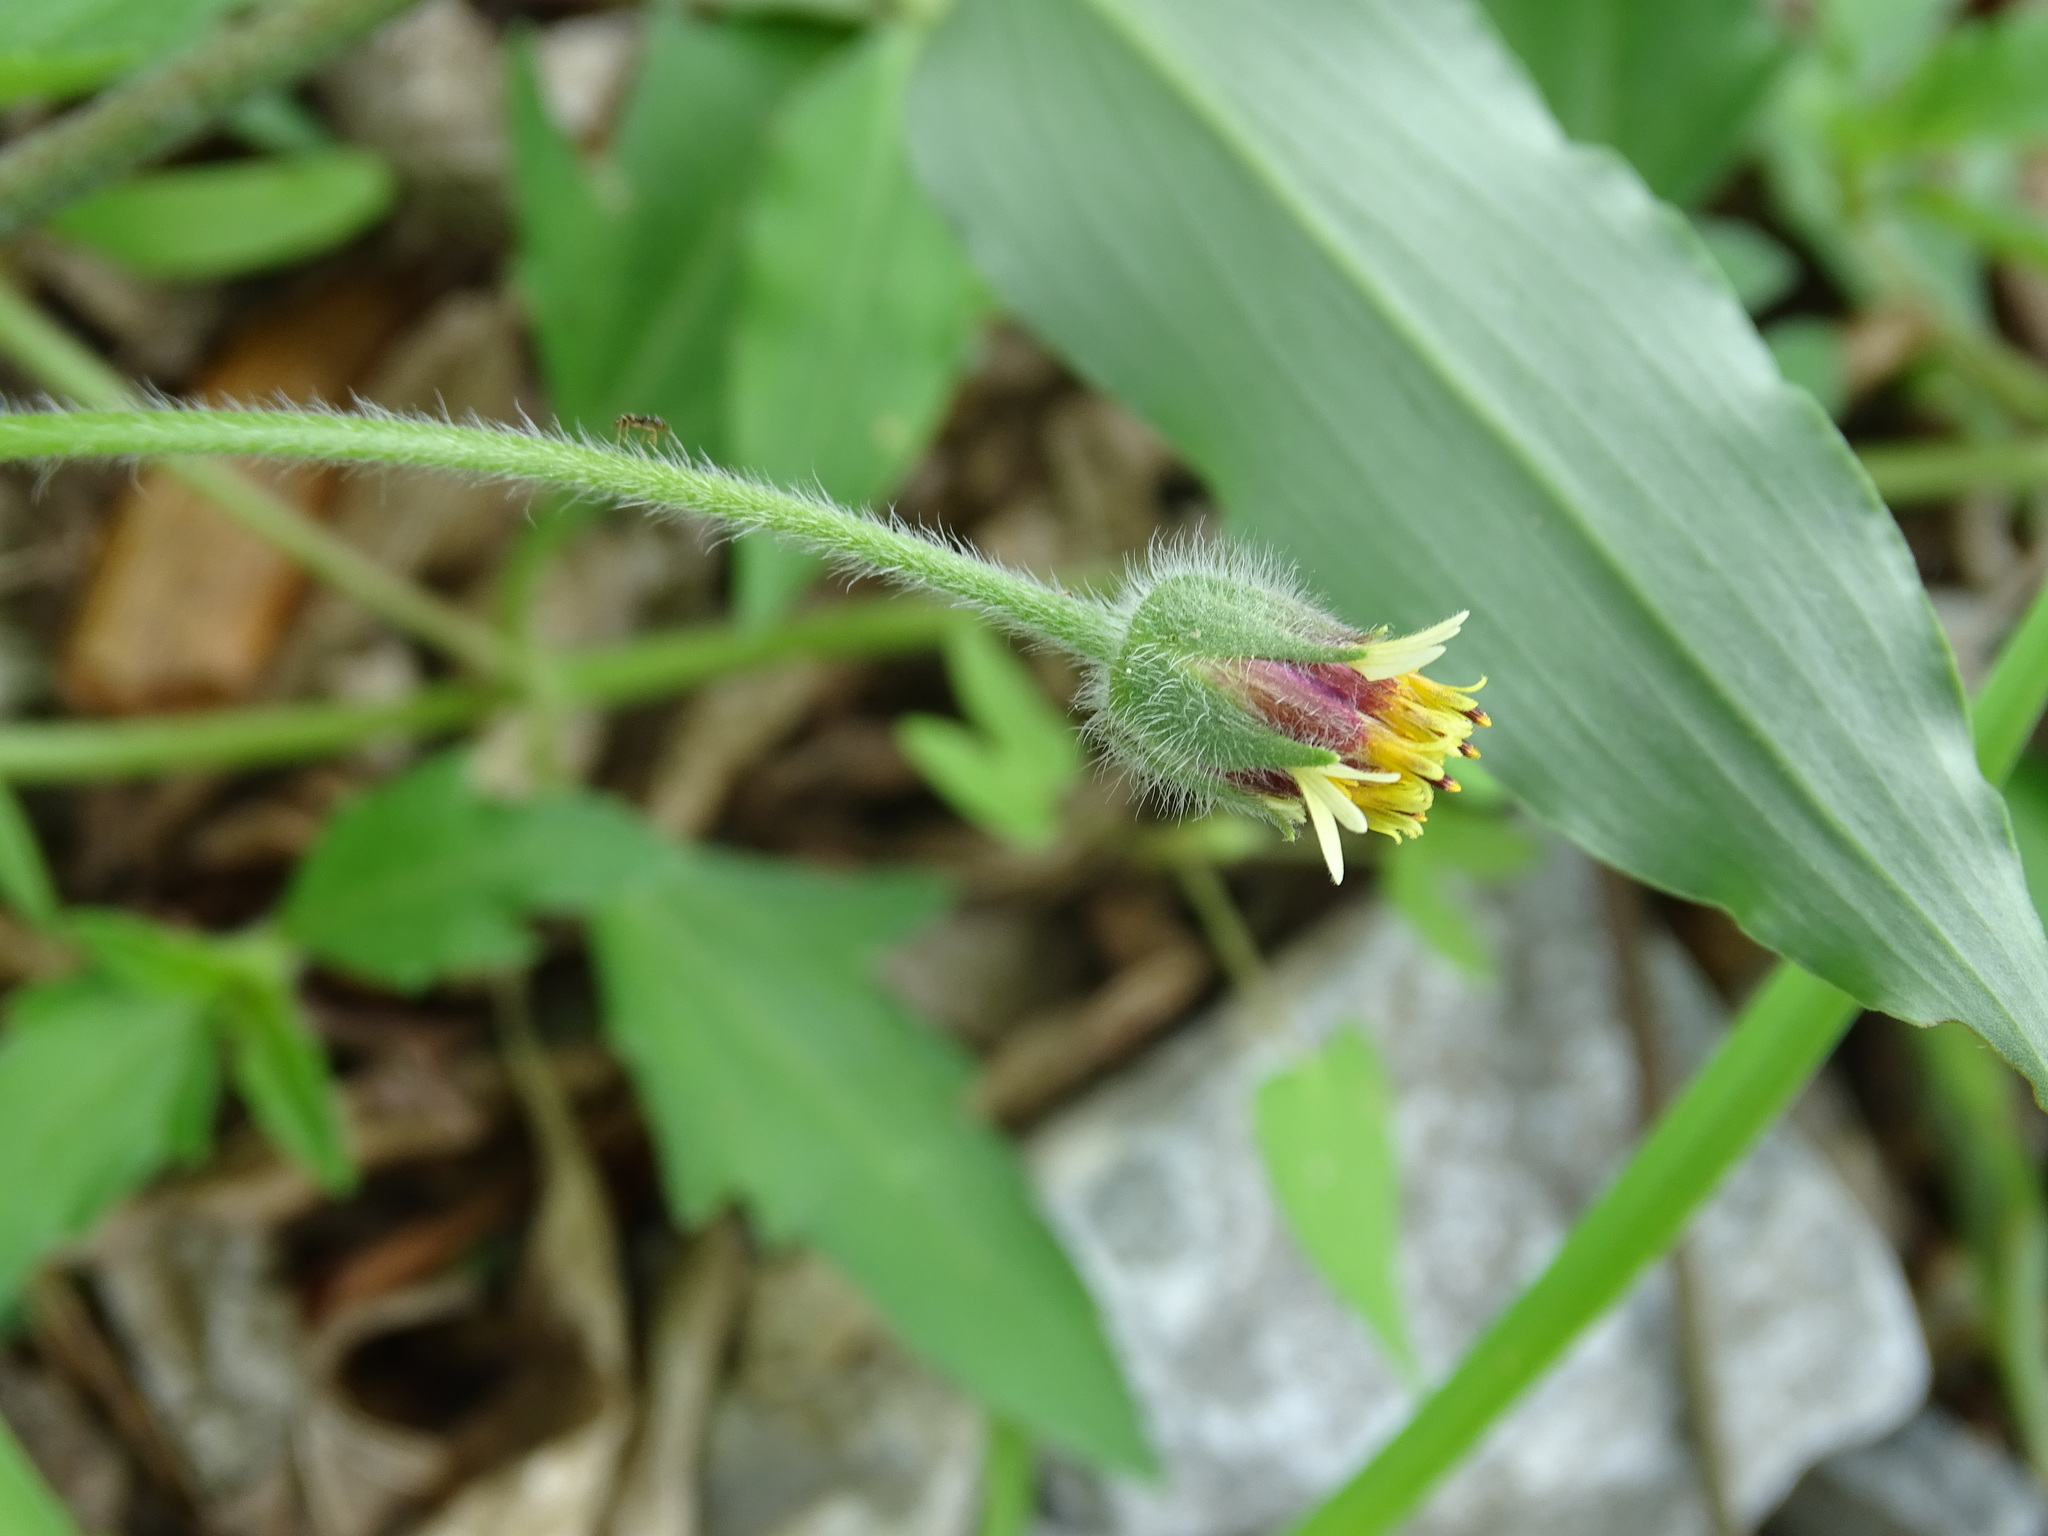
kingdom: Plantae
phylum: Tracheophyta
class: Magnoliopsida
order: Asterales
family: Asteraceae
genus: Tridax
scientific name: Tridax procumbens
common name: Coatbuttons
